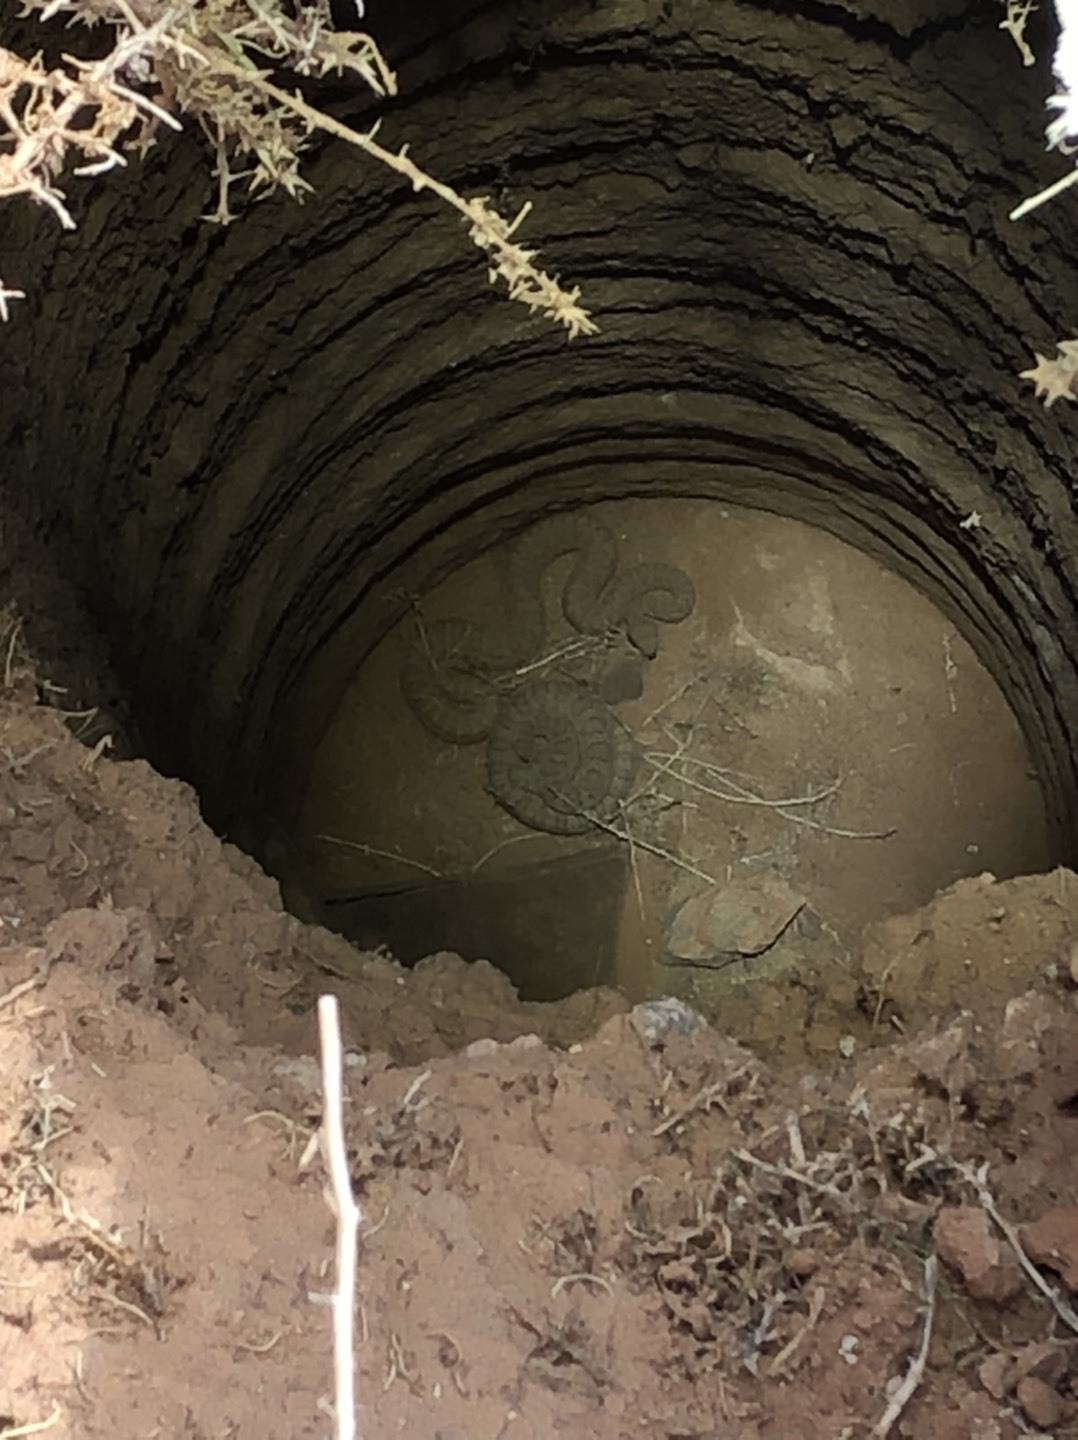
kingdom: Animalia
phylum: Chordata
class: Squamata
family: Viperidae
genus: Crotalus
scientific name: Crotalus oreganus
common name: Abyssus
